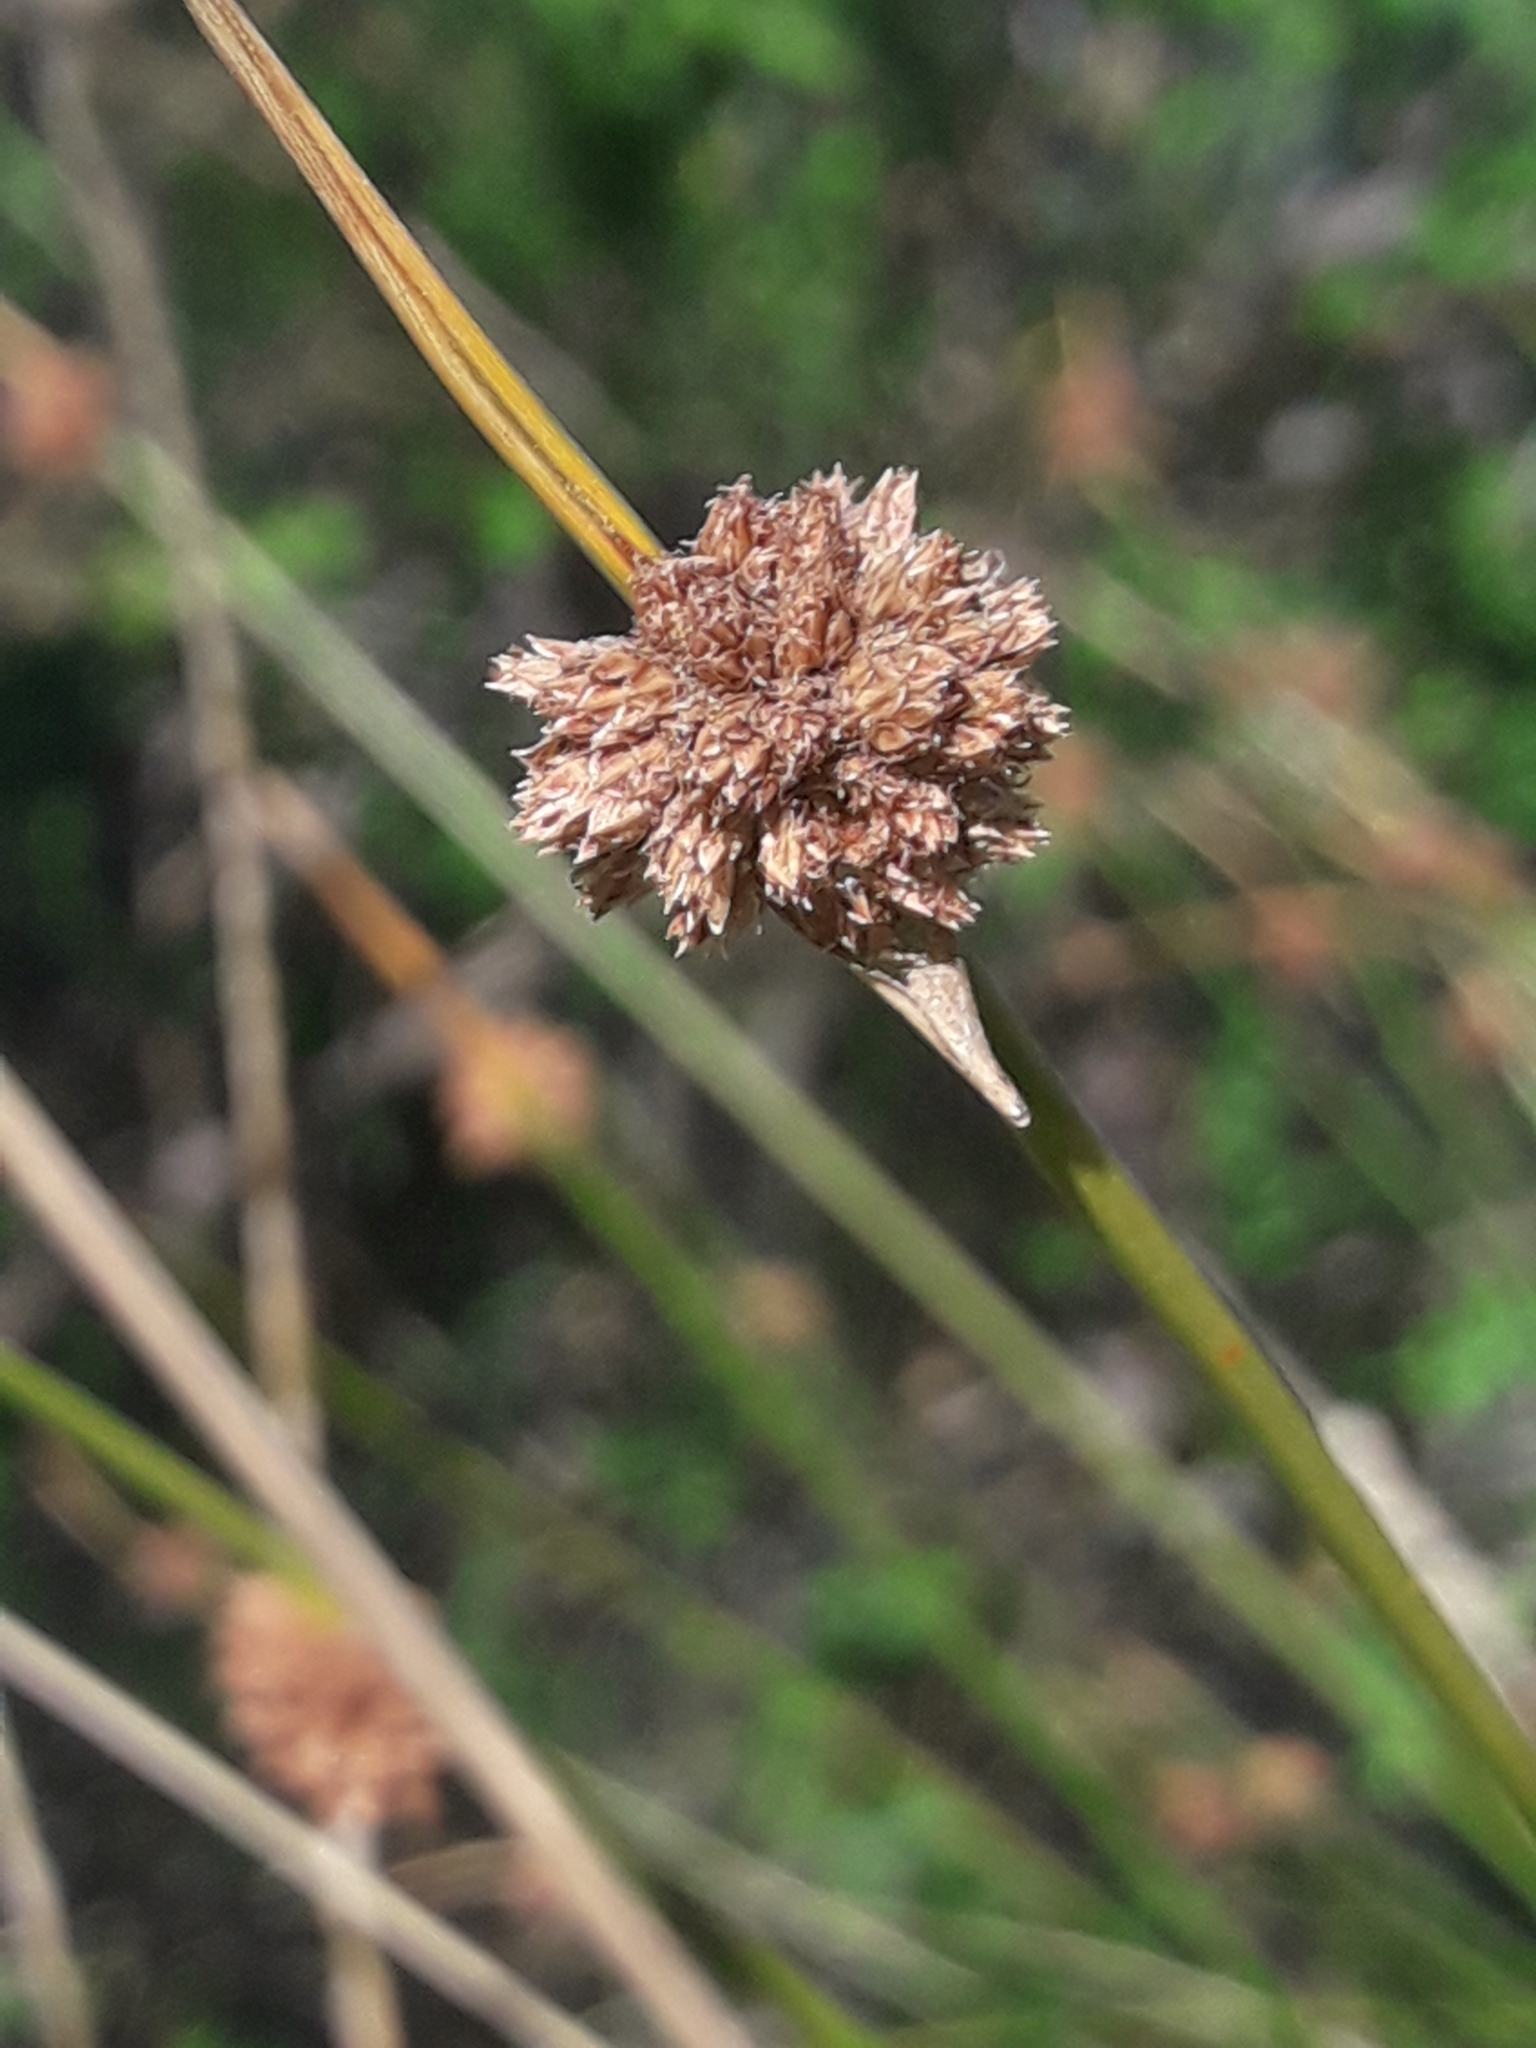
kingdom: Plantae
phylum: Tracheophyta
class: Liliopsida
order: Poales
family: Cyperaceae
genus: Ficinia
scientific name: Ficinia nodosa
